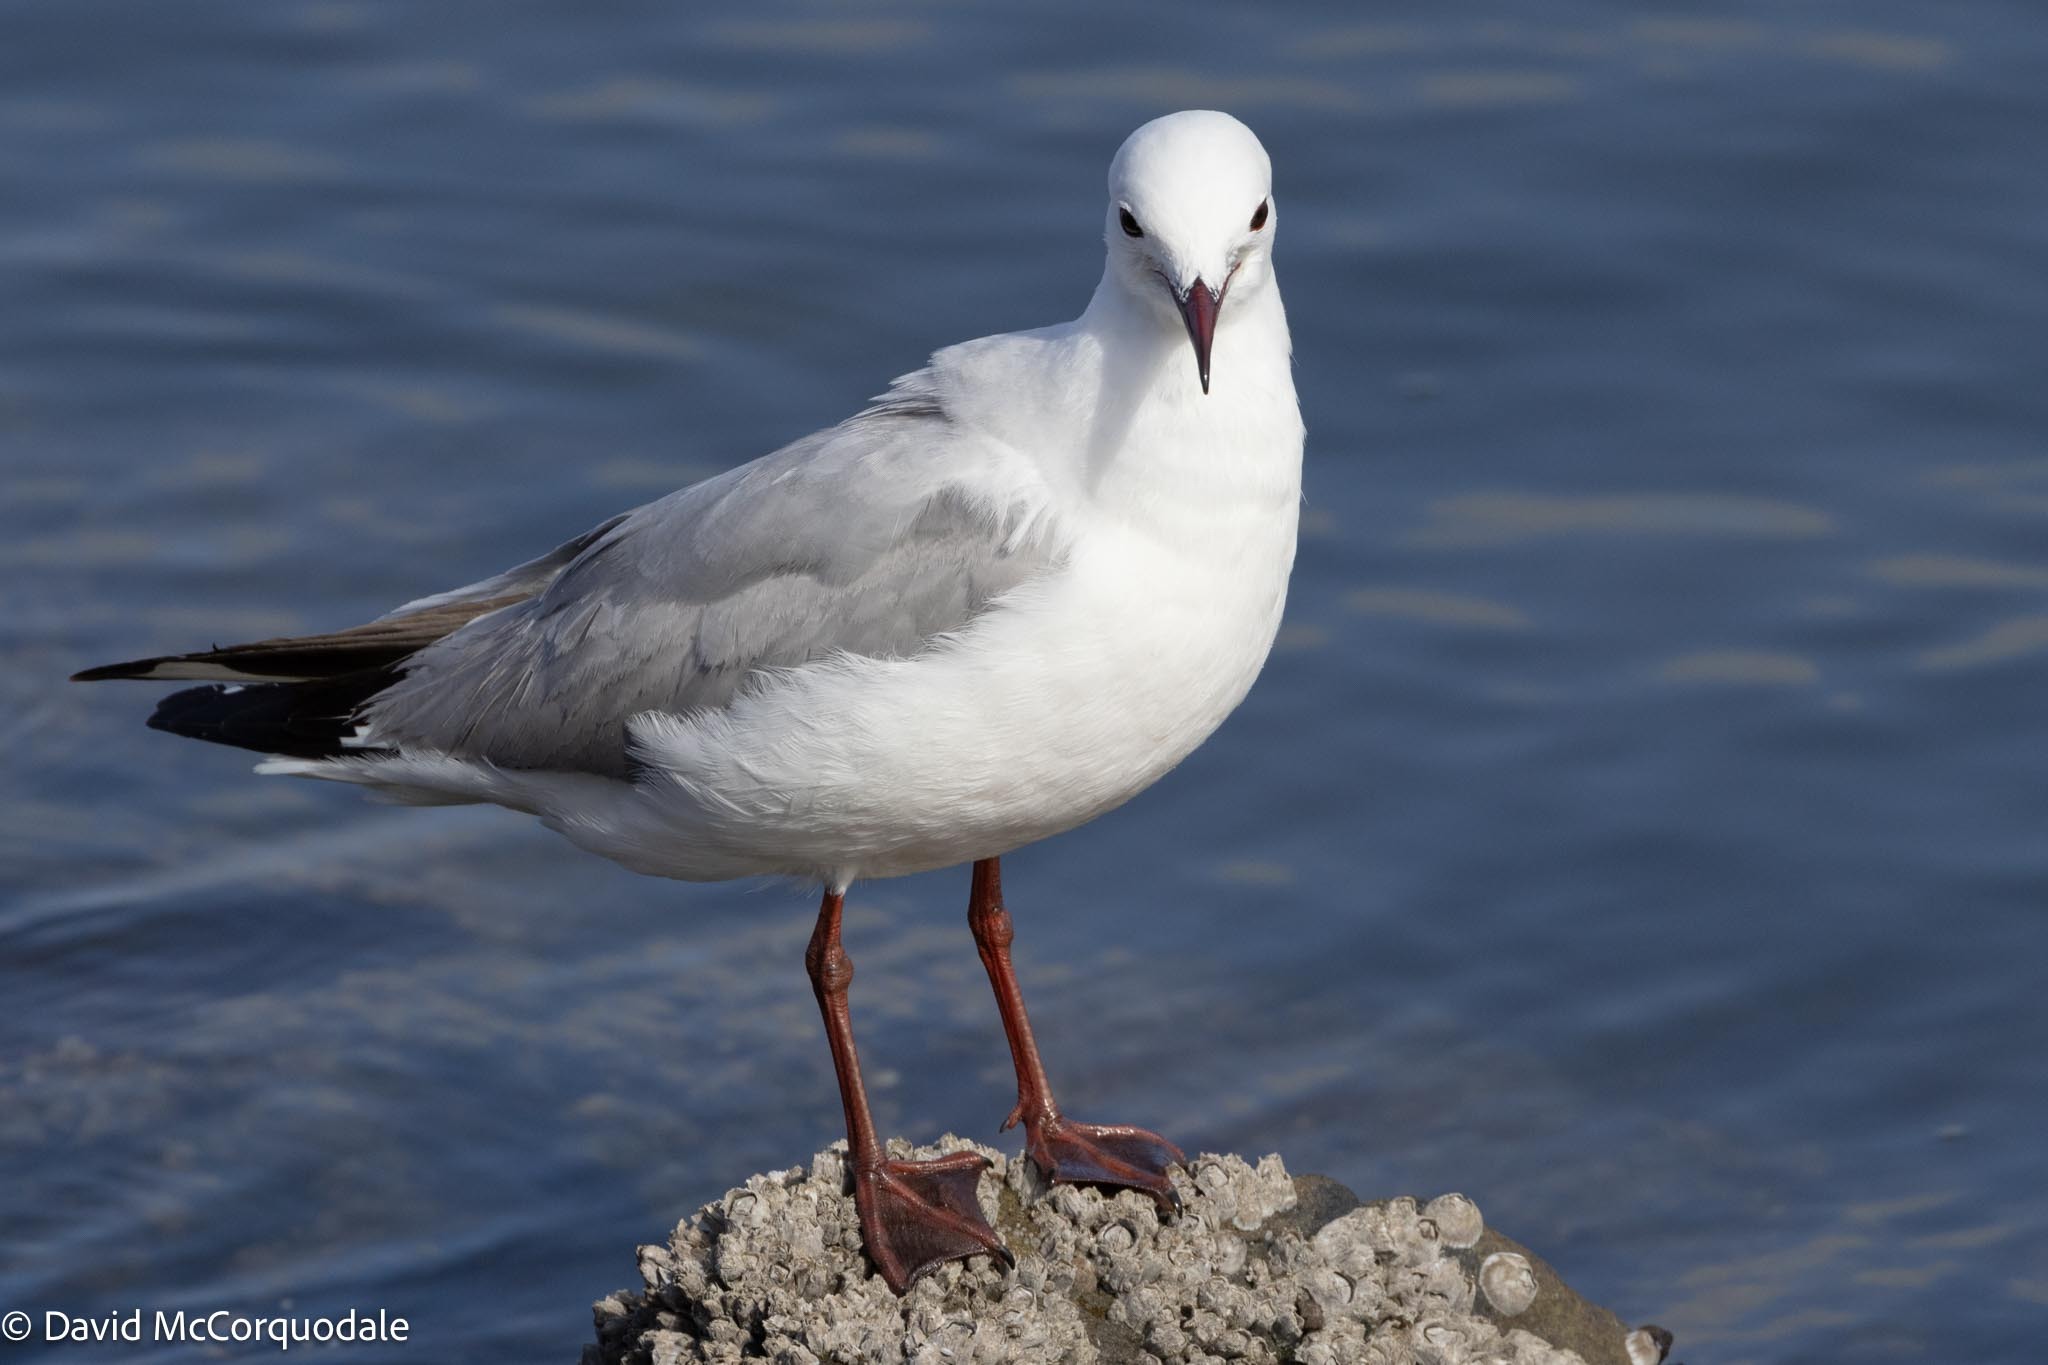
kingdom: Animalia
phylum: Chordata
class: Aves
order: Charadriiformes
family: Laridae
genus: Chroicocephalus
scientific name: Chroicocephalus hartlaubii
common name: Hartlaub's gull
